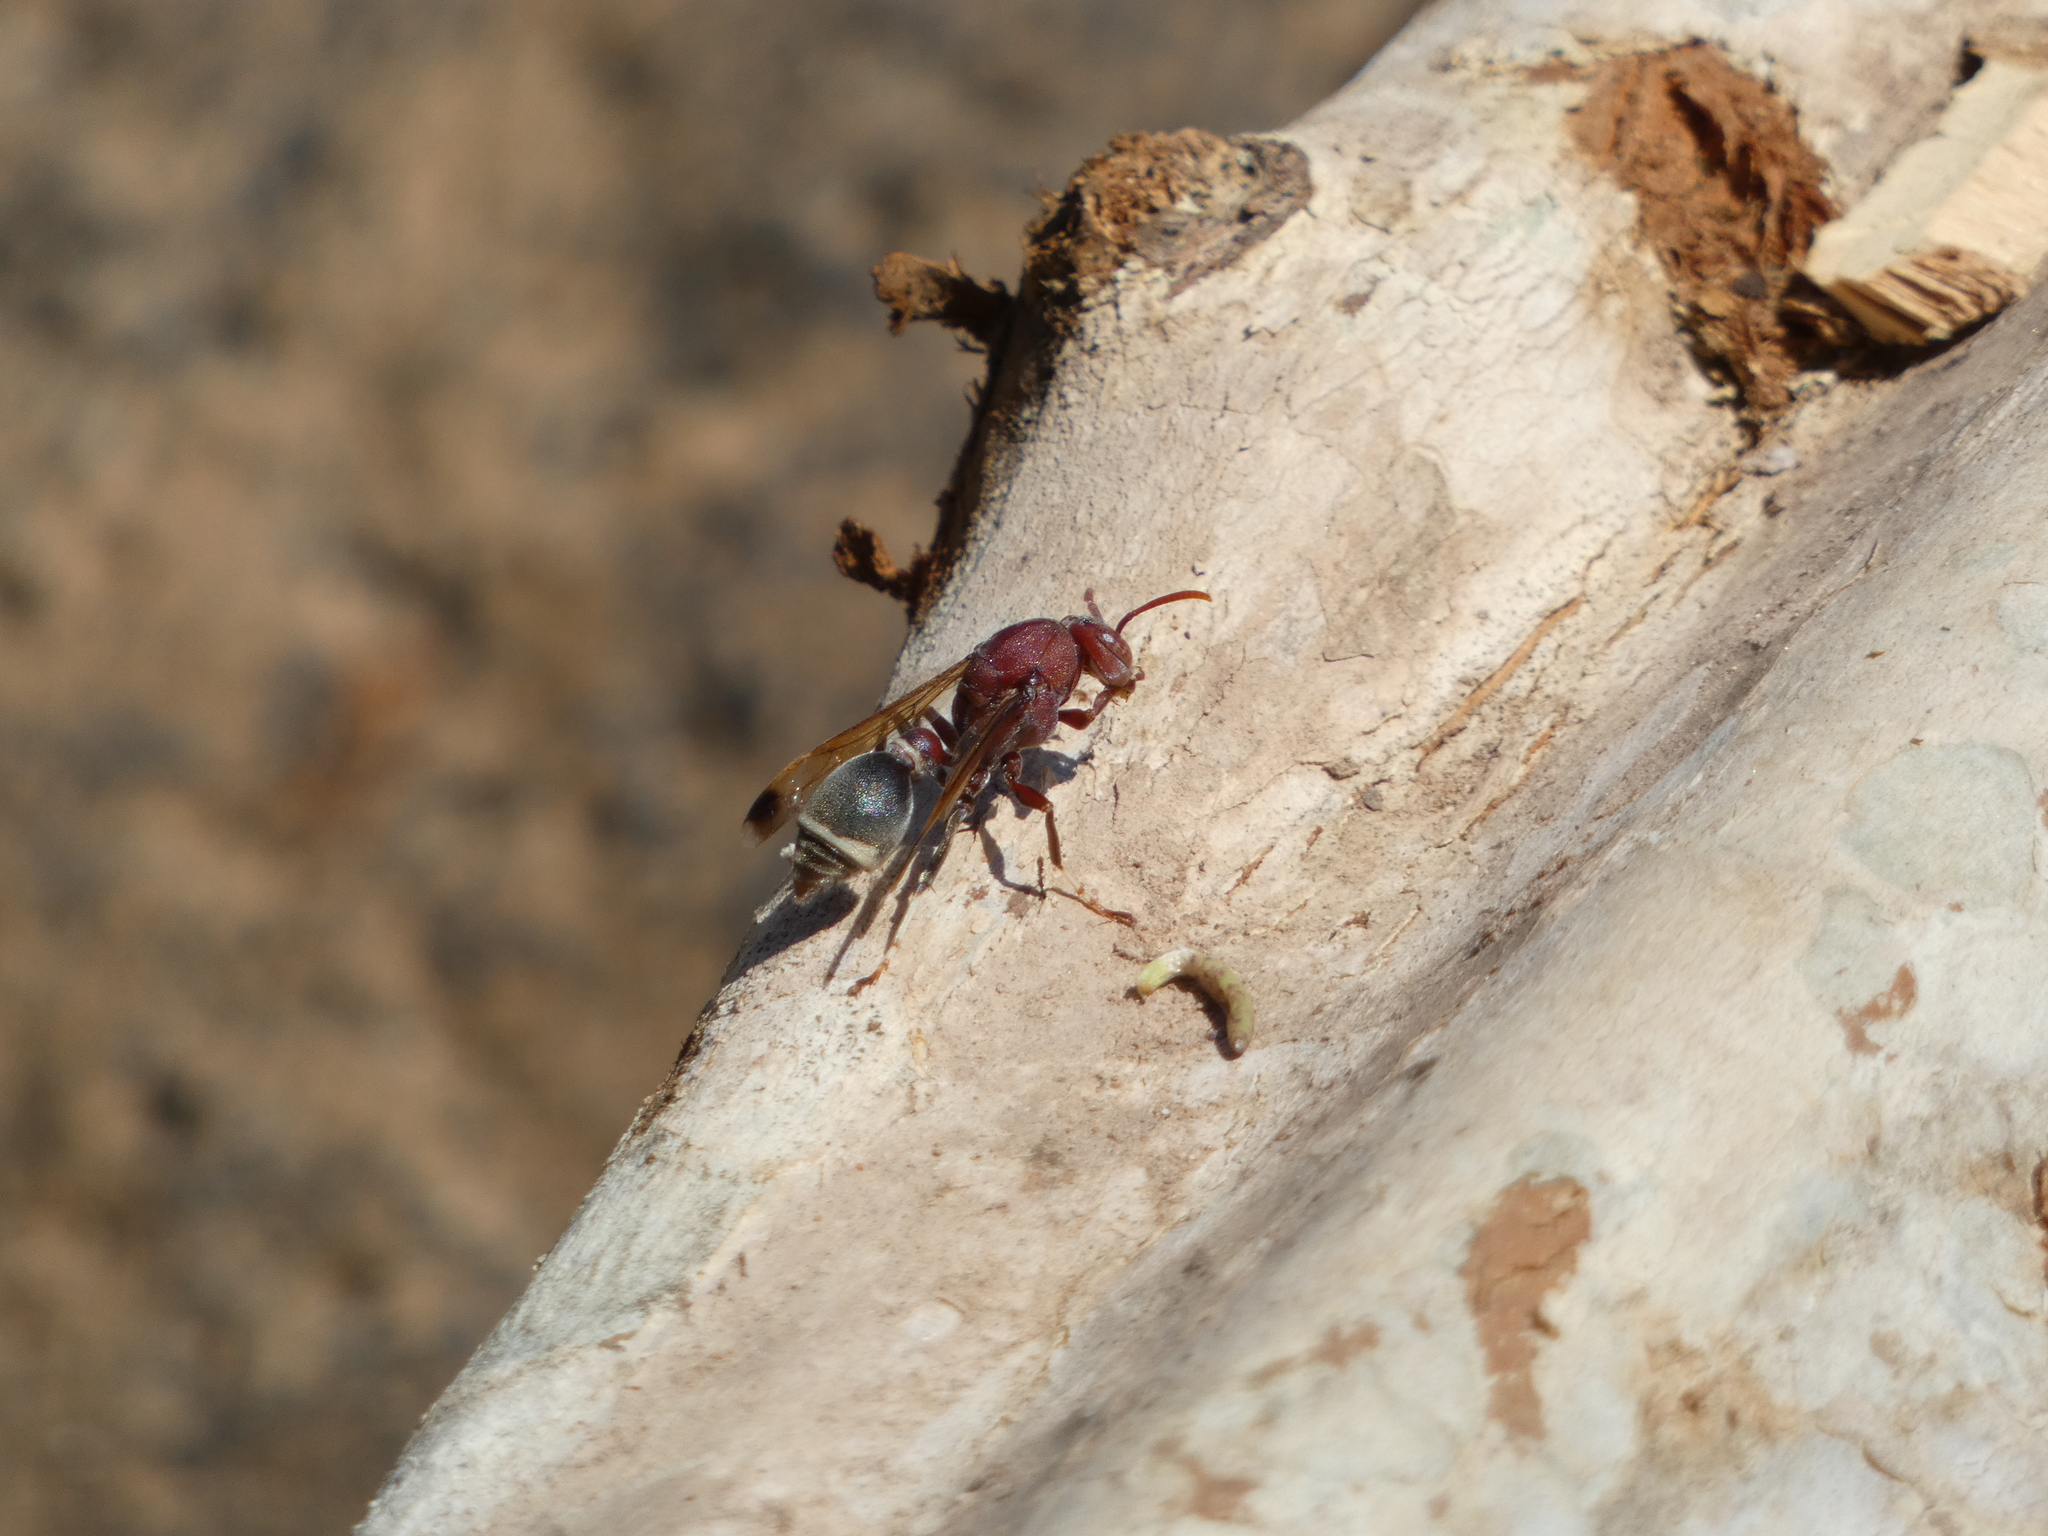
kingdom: Animalia
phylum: Arthropoda
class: Insecta
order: Hymenoptera
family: Vespidae
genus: Ropalidia
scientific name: Ropalidia magnanima
